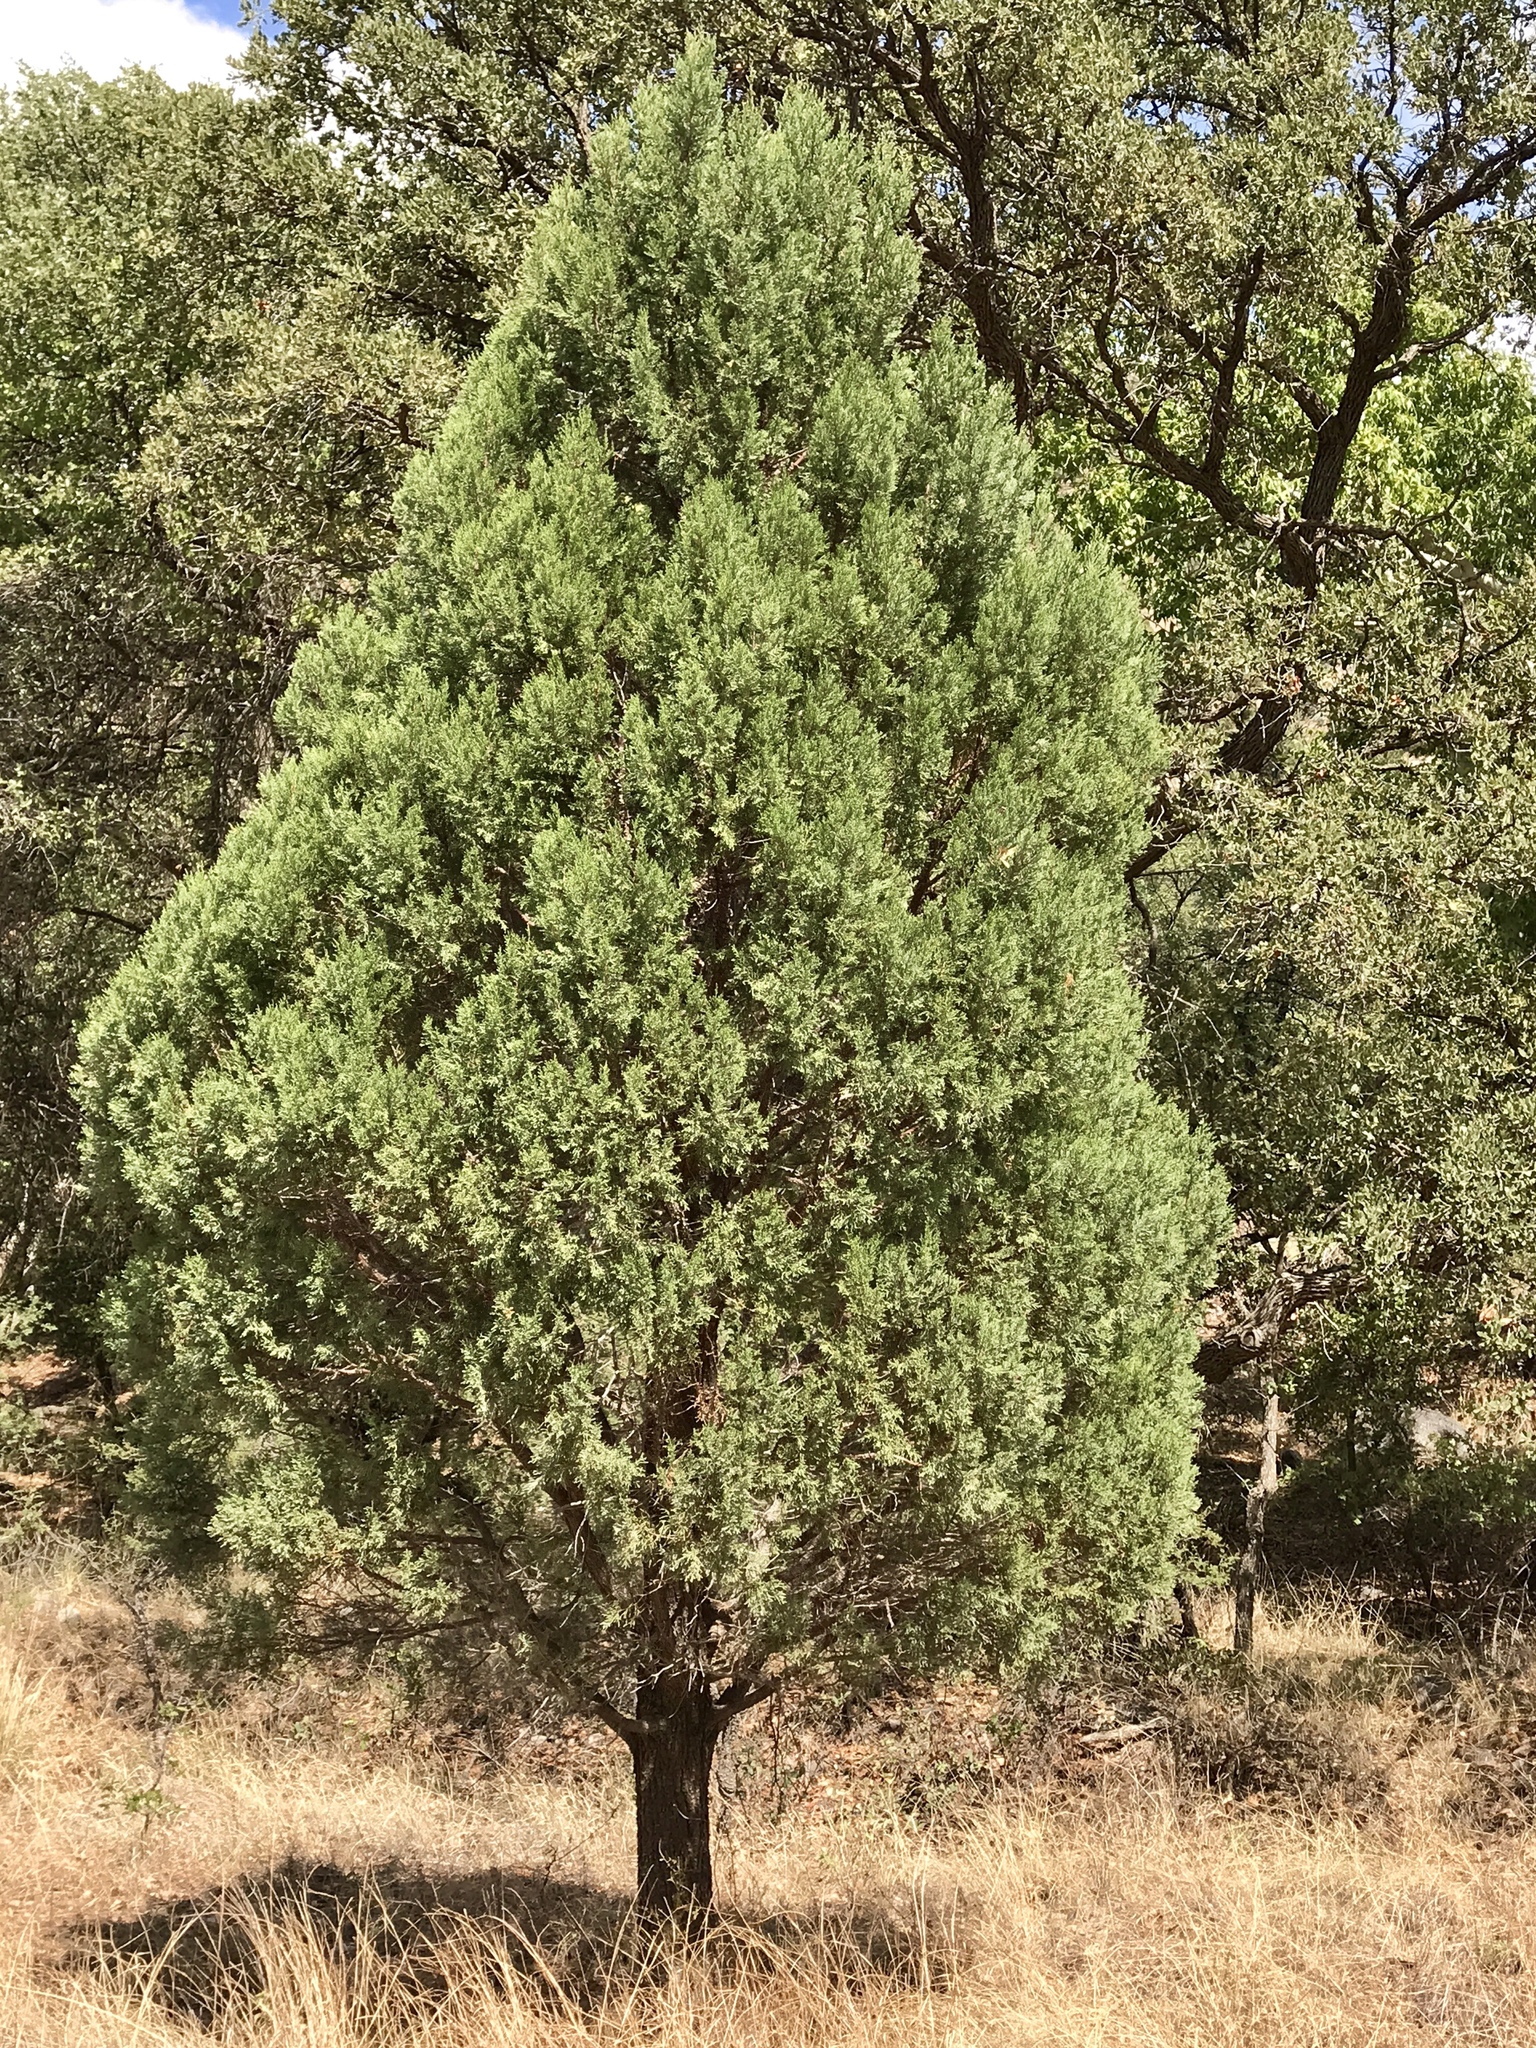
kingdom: Plantae
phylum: Tracheophyta
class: Pinopsida
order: Pinales
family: Cupressaceae
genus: Juniperus
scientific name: Juniperus deppeana
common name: Alligator juniper
